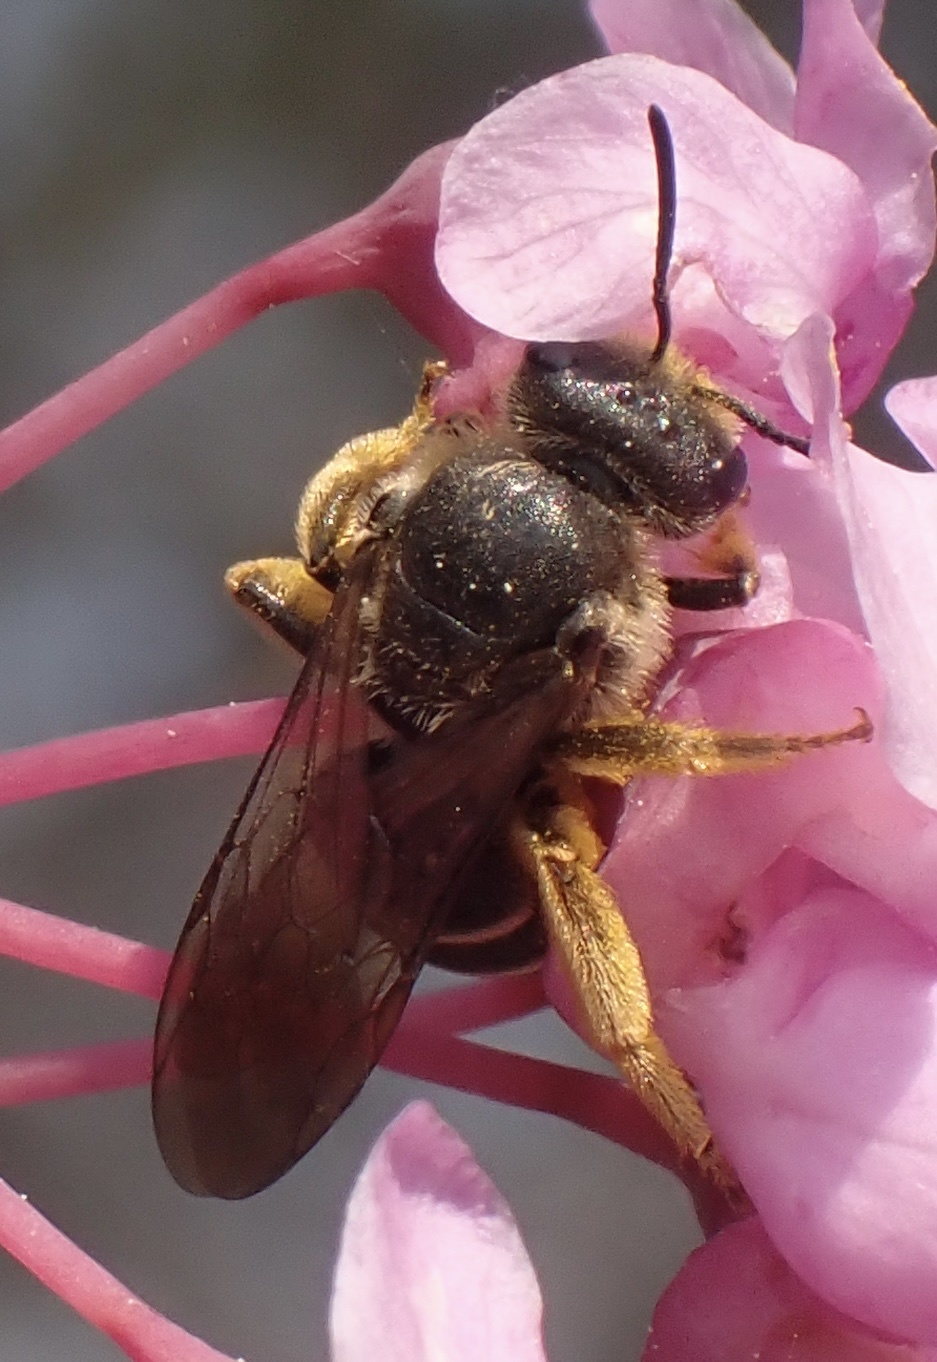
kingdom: Animalia
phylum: Arthropoda
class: Insecta
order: Hymenoptera
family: Halictidae
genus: Halictus
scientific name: Halictus rubicundus
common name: Orange-legged furrow bee
